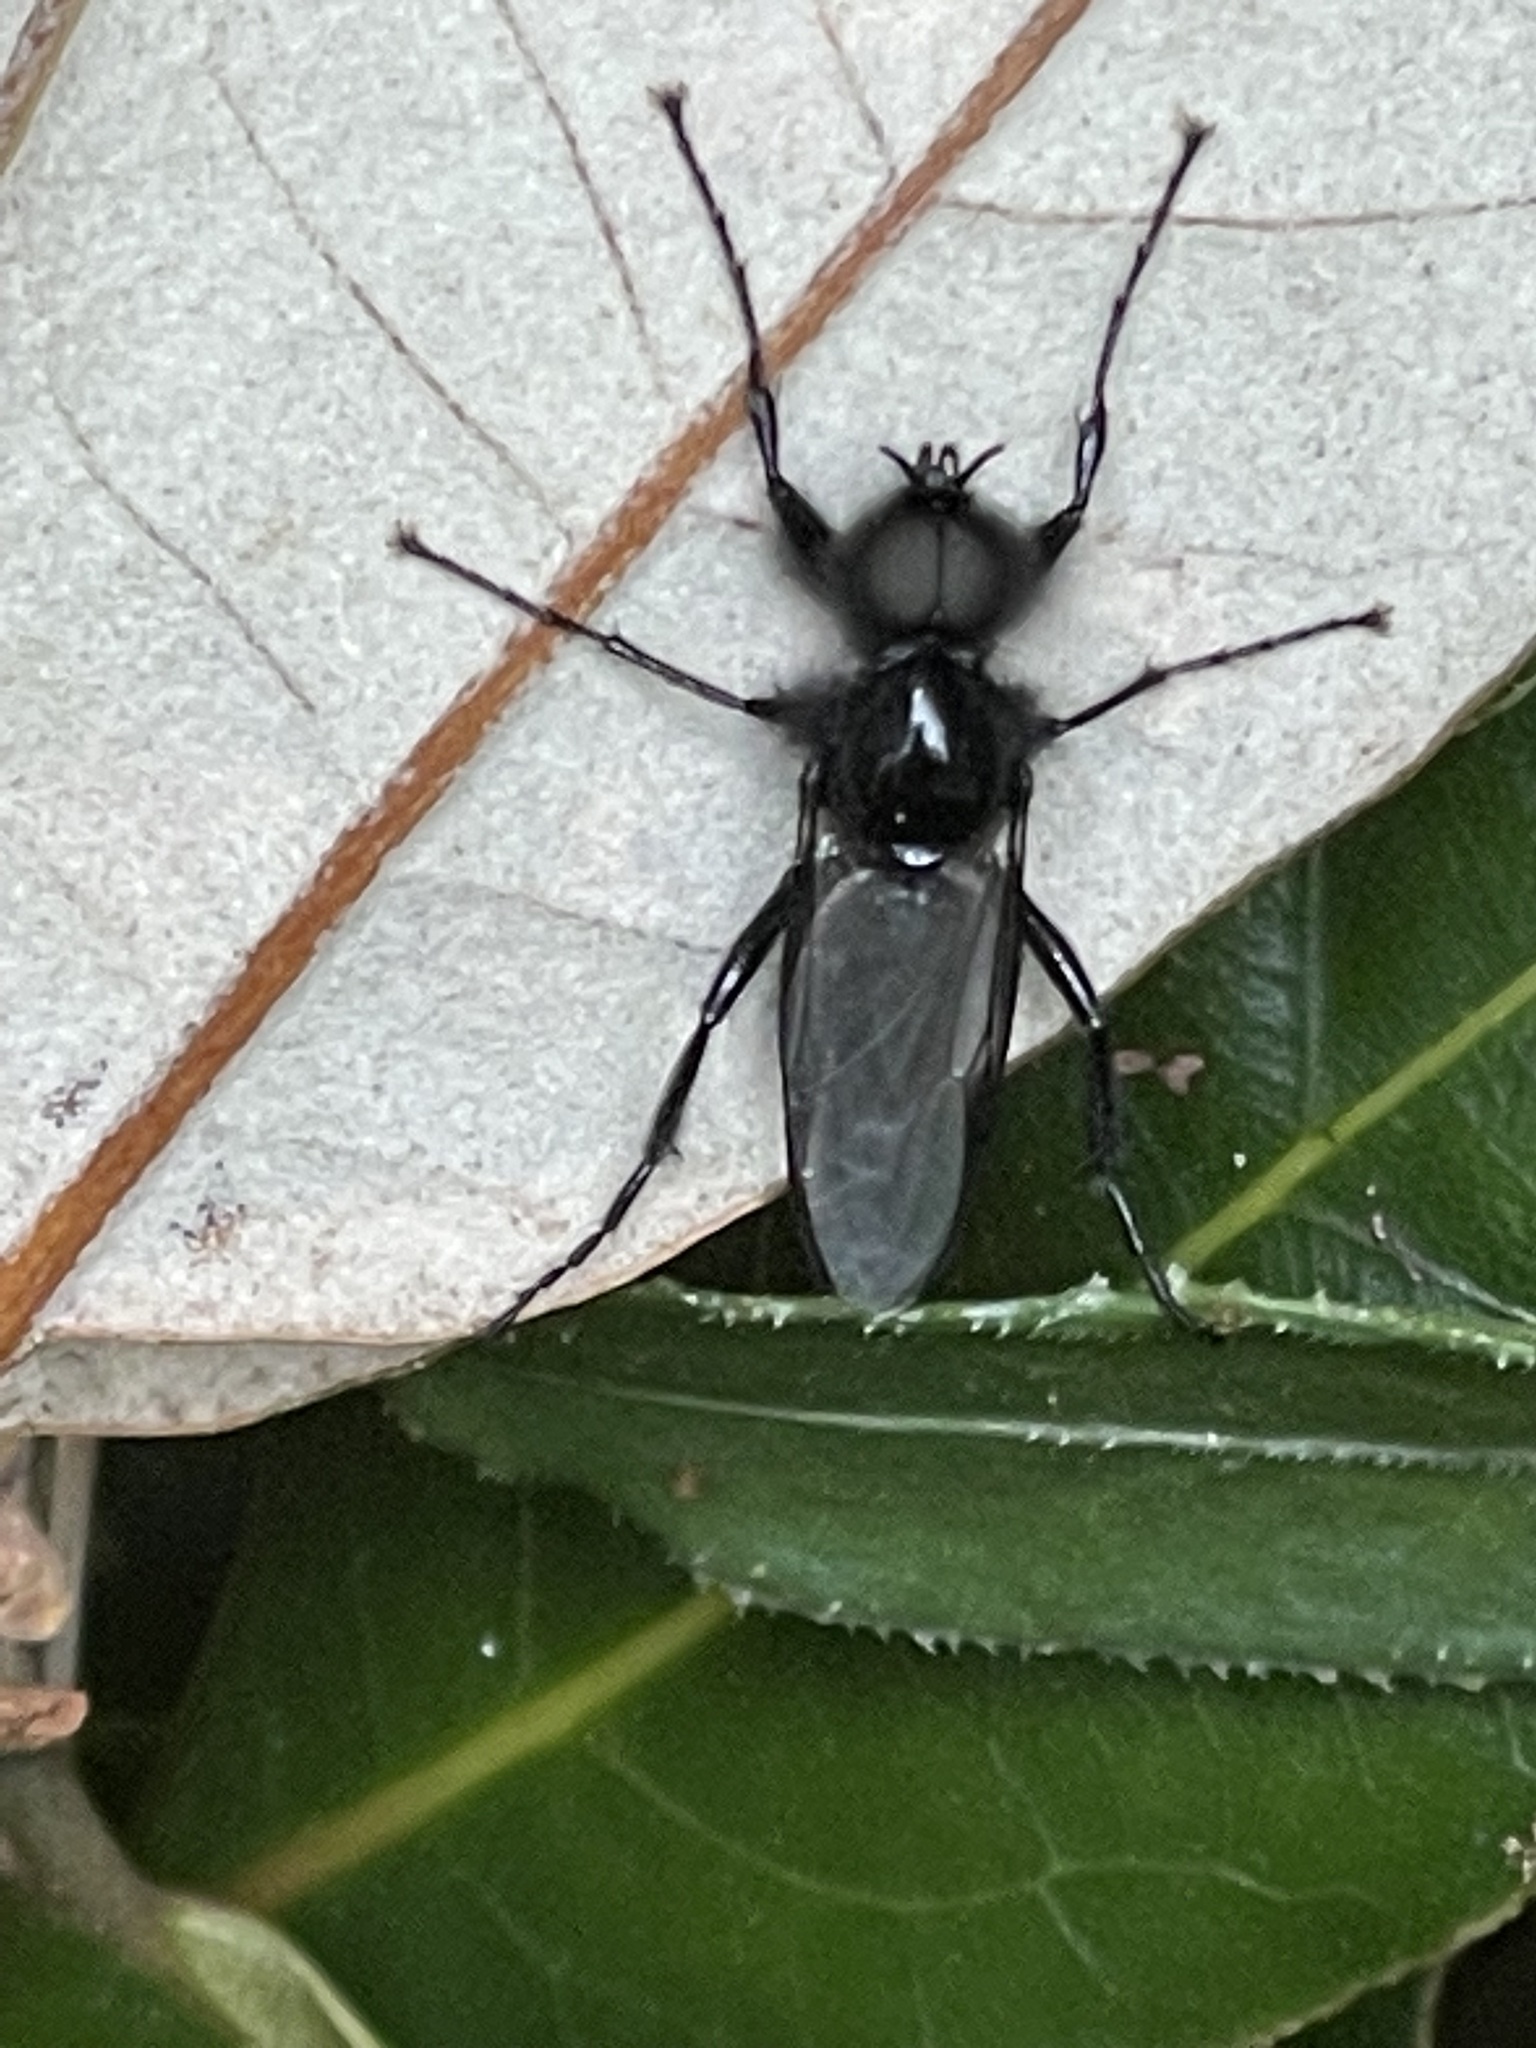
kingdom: Animalia
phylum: Arthropoda
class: Insecta
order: Diptera
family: Bibionidae
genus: Bibio
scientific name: Bibio marci
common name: St marks fly
